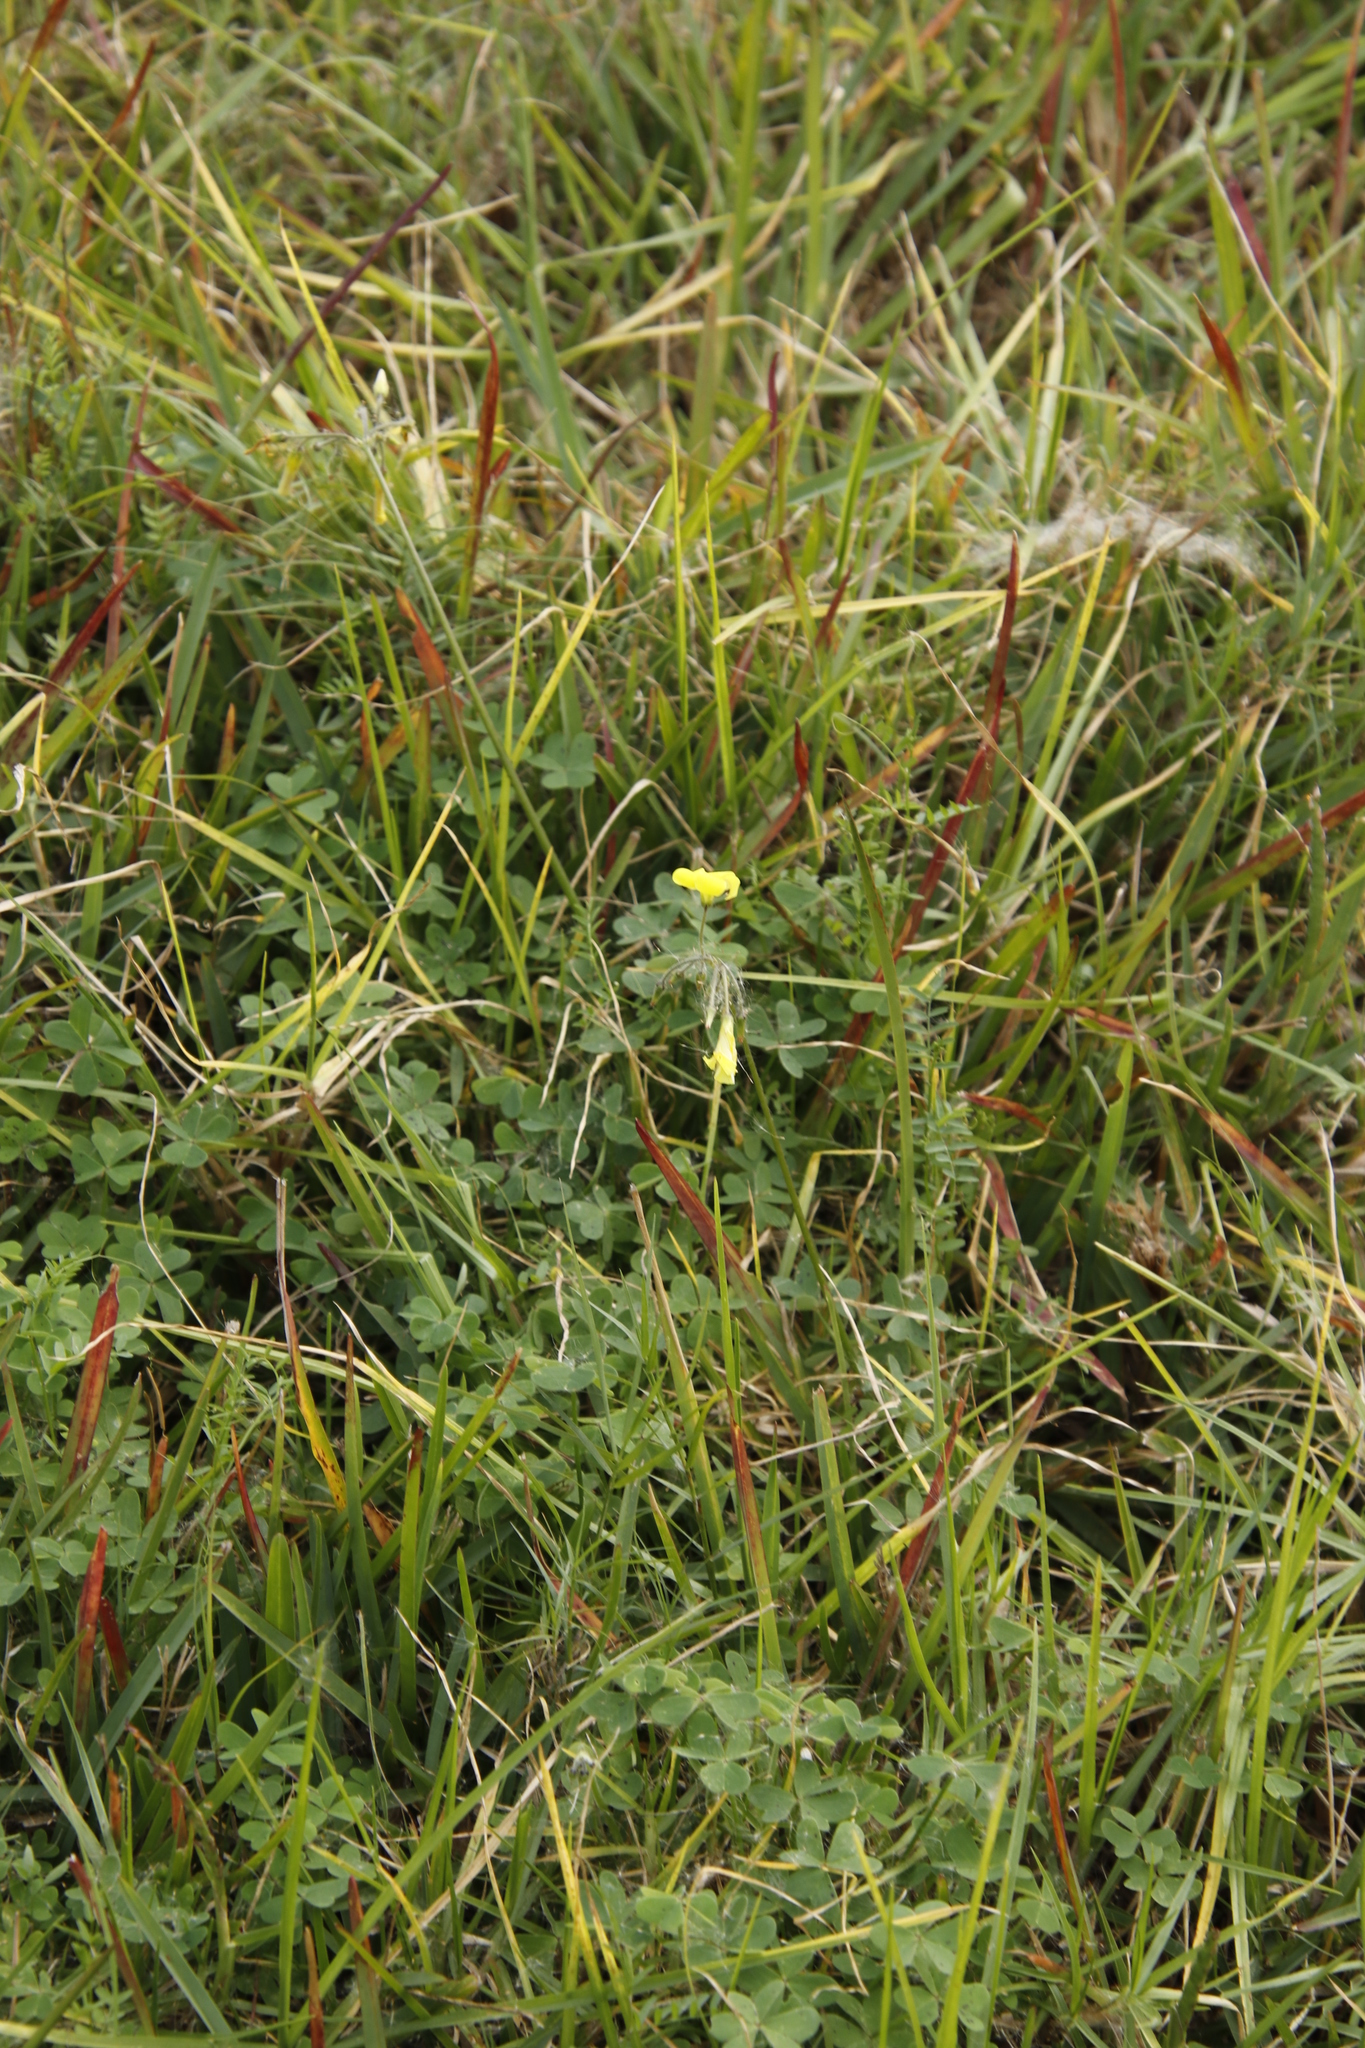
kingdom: Plantae
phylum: Tracheophyta
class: Magnoliopsida
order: Oxalidales
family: Oxalidaceae
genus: Oxalis
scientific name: Oxalis pes-caprae
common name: Bermuda-buttercup
